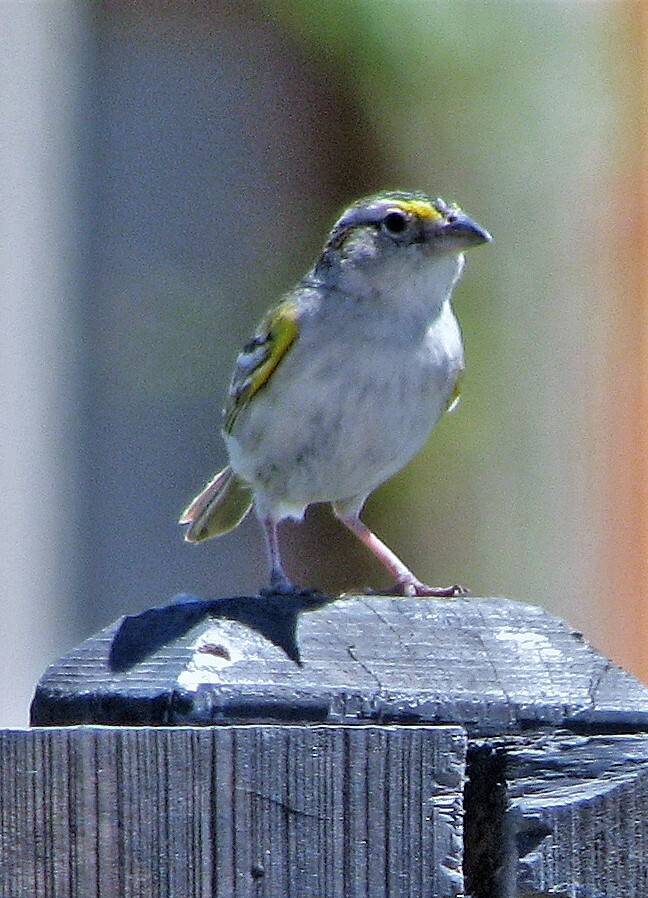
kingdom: Animalia
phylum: Chordata
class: Aves
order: Passeriformes
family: Passerellidae
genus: Ammodramus
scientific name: Ammodramus humeralis
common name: Grassland sparrow
